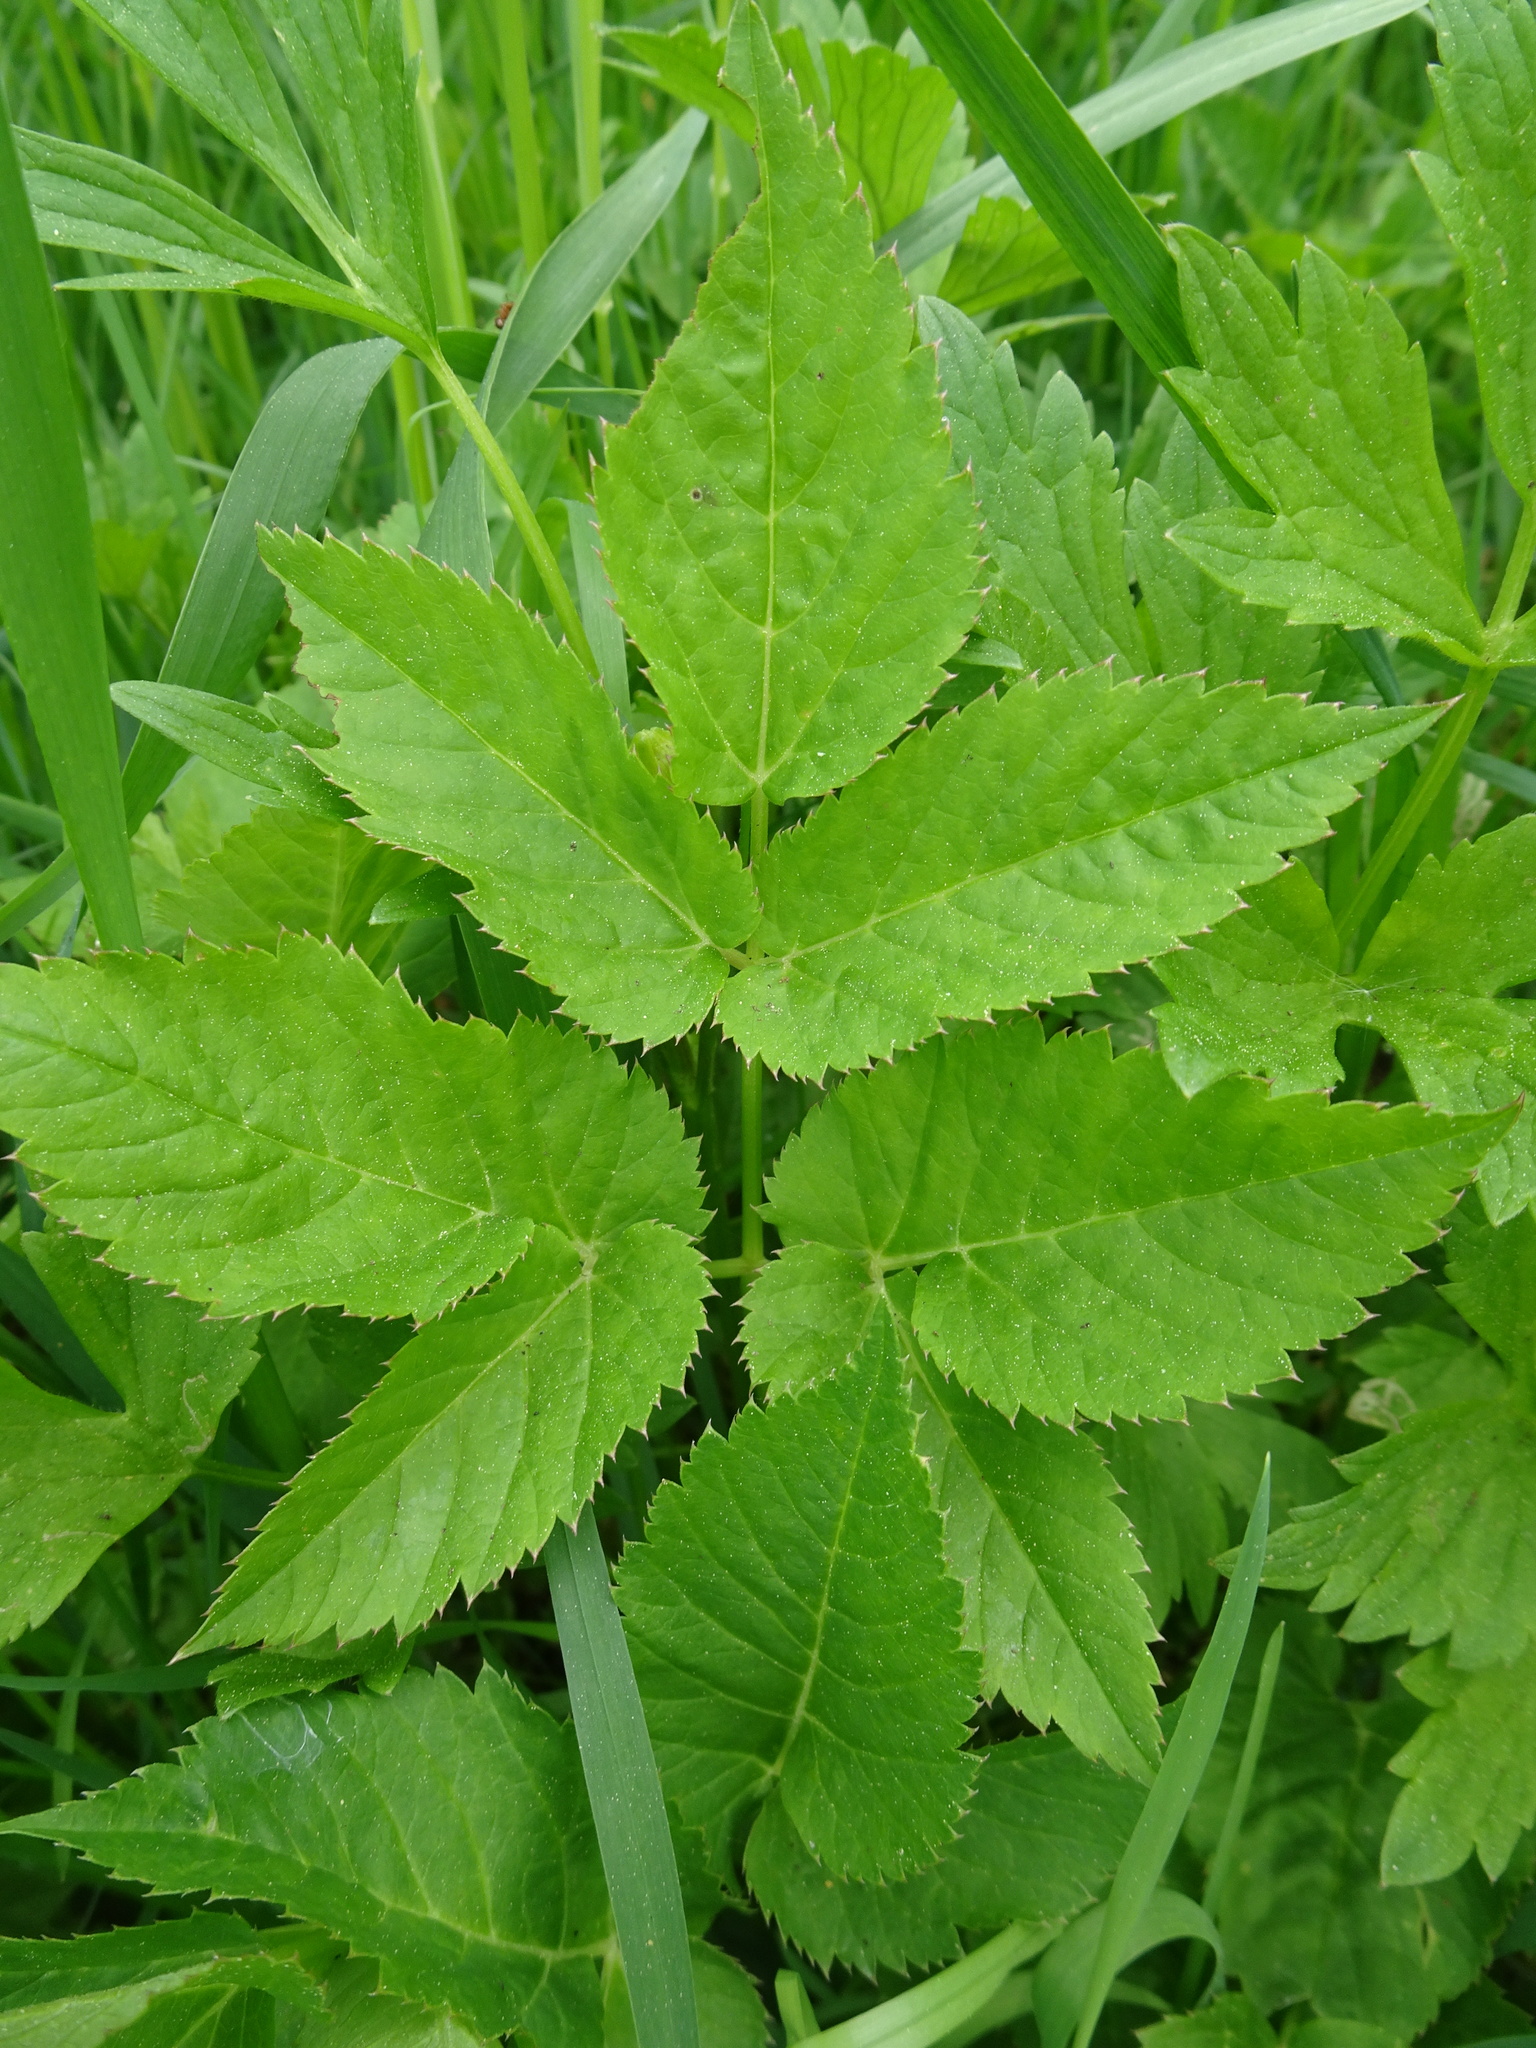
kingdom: Plantae
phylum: Tracheophyta
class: Magnoliopsida
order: Apiales
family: Apiaceae
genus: Aegopodium
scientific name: Aegopodium podagraria
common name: Ground-elder
